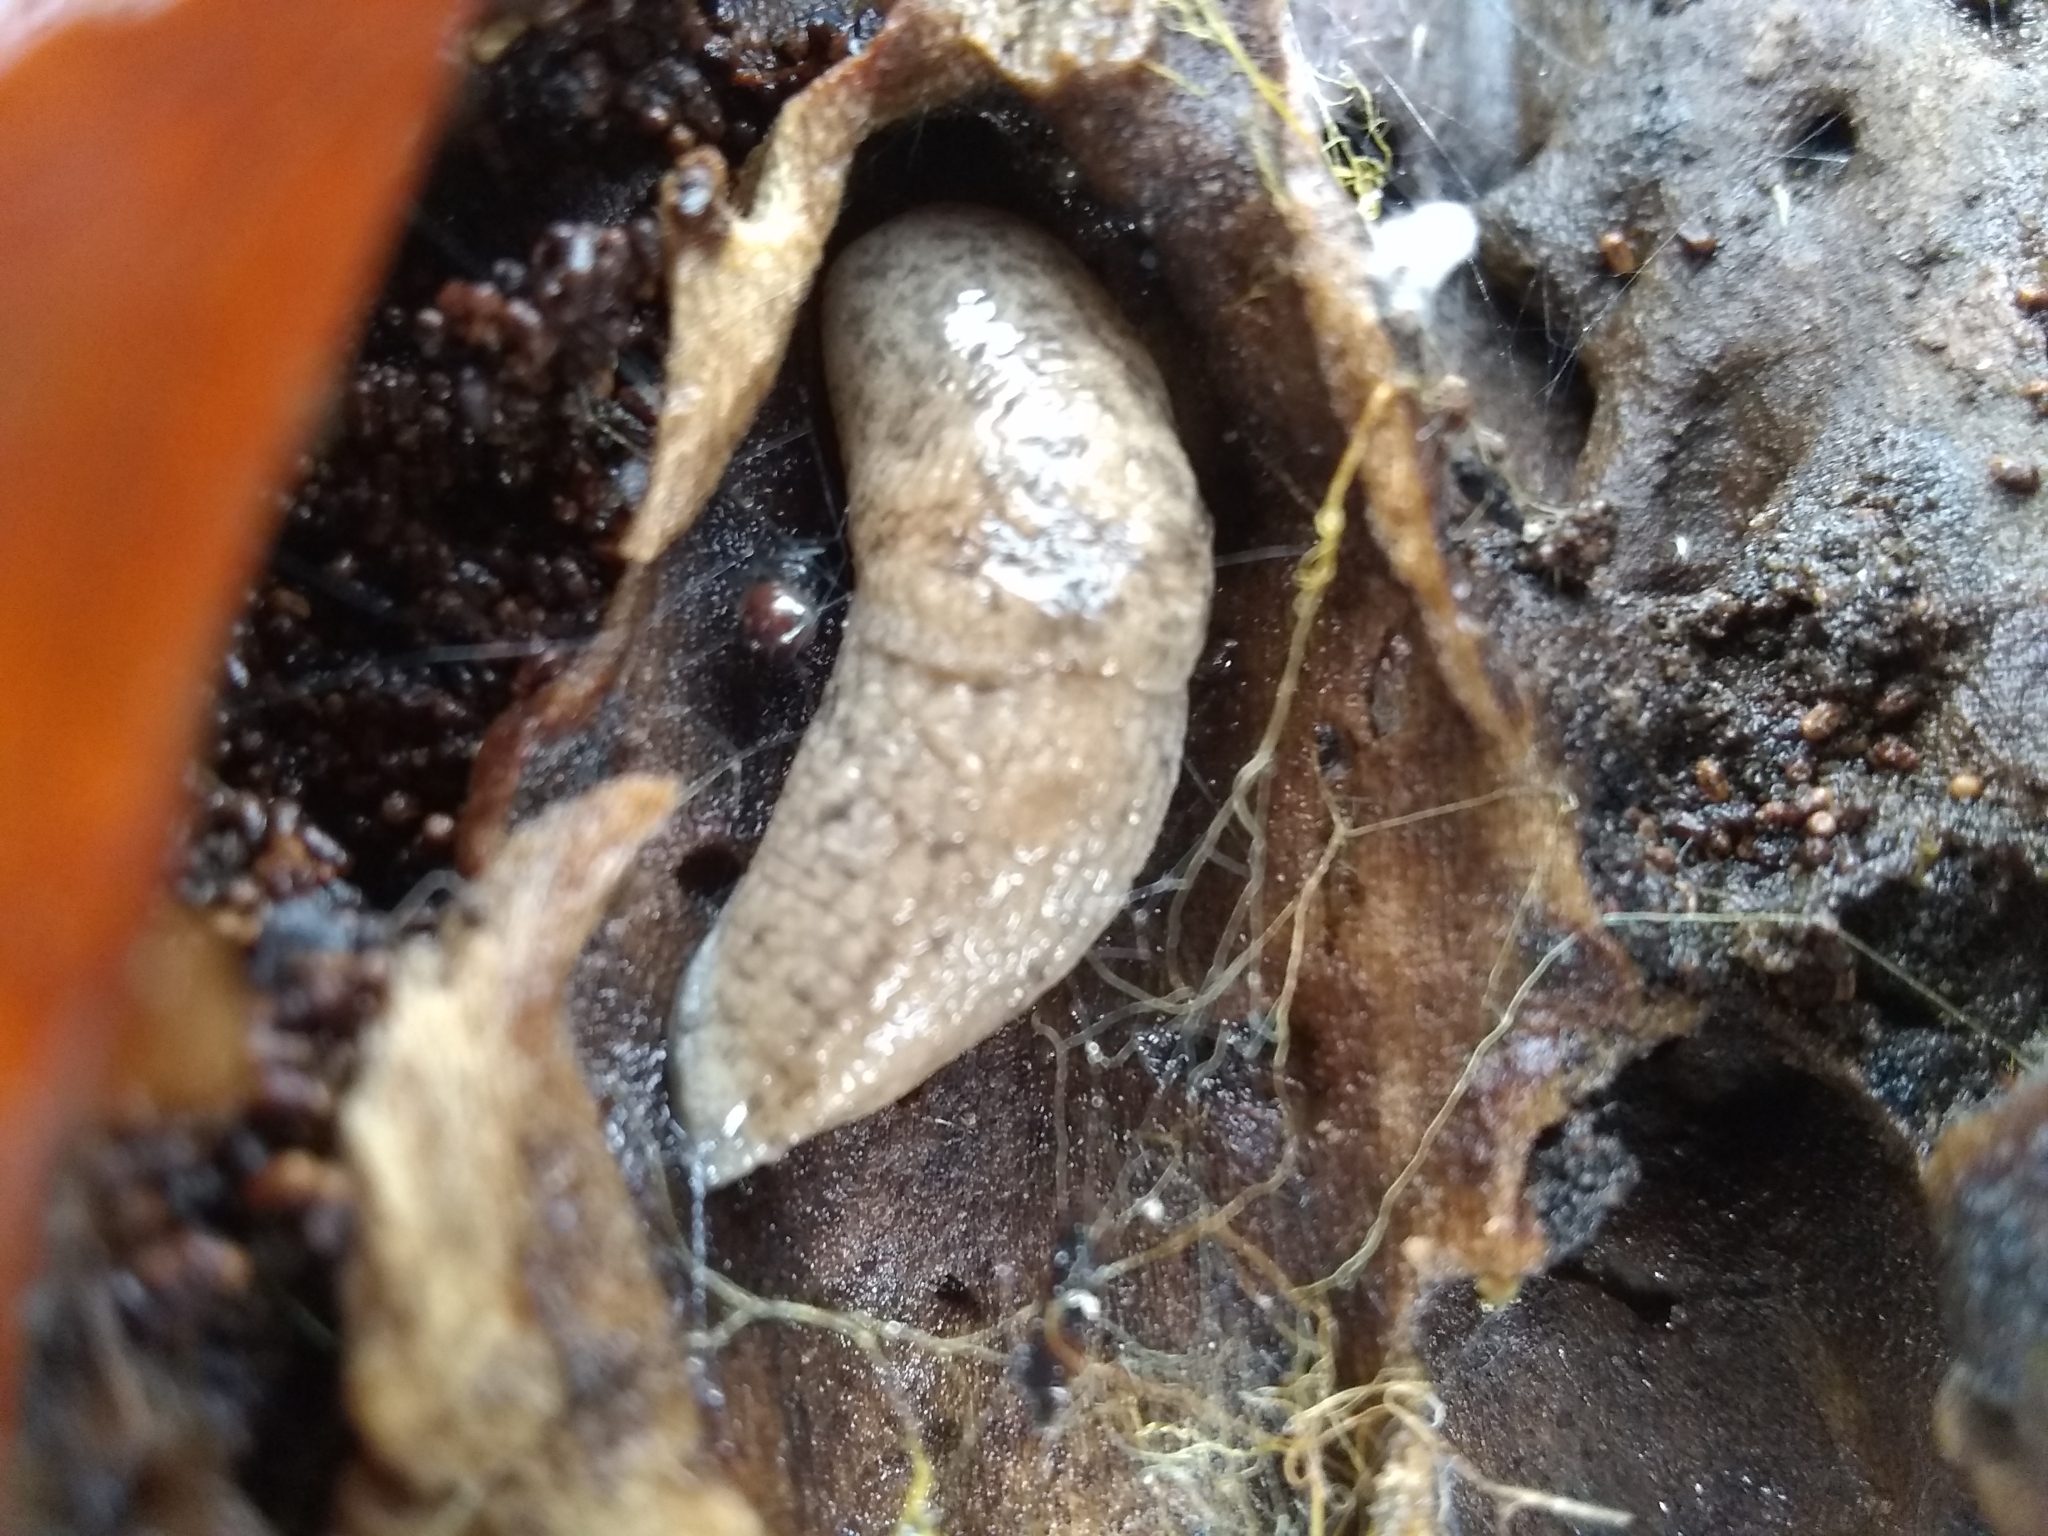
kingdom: Animalia
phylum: Mollusca
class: Gastropoda
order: Stylommatophora
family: Agriolimacidae
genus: Deroceras
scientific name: Deroceras reticulatum
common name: Gray field slug
